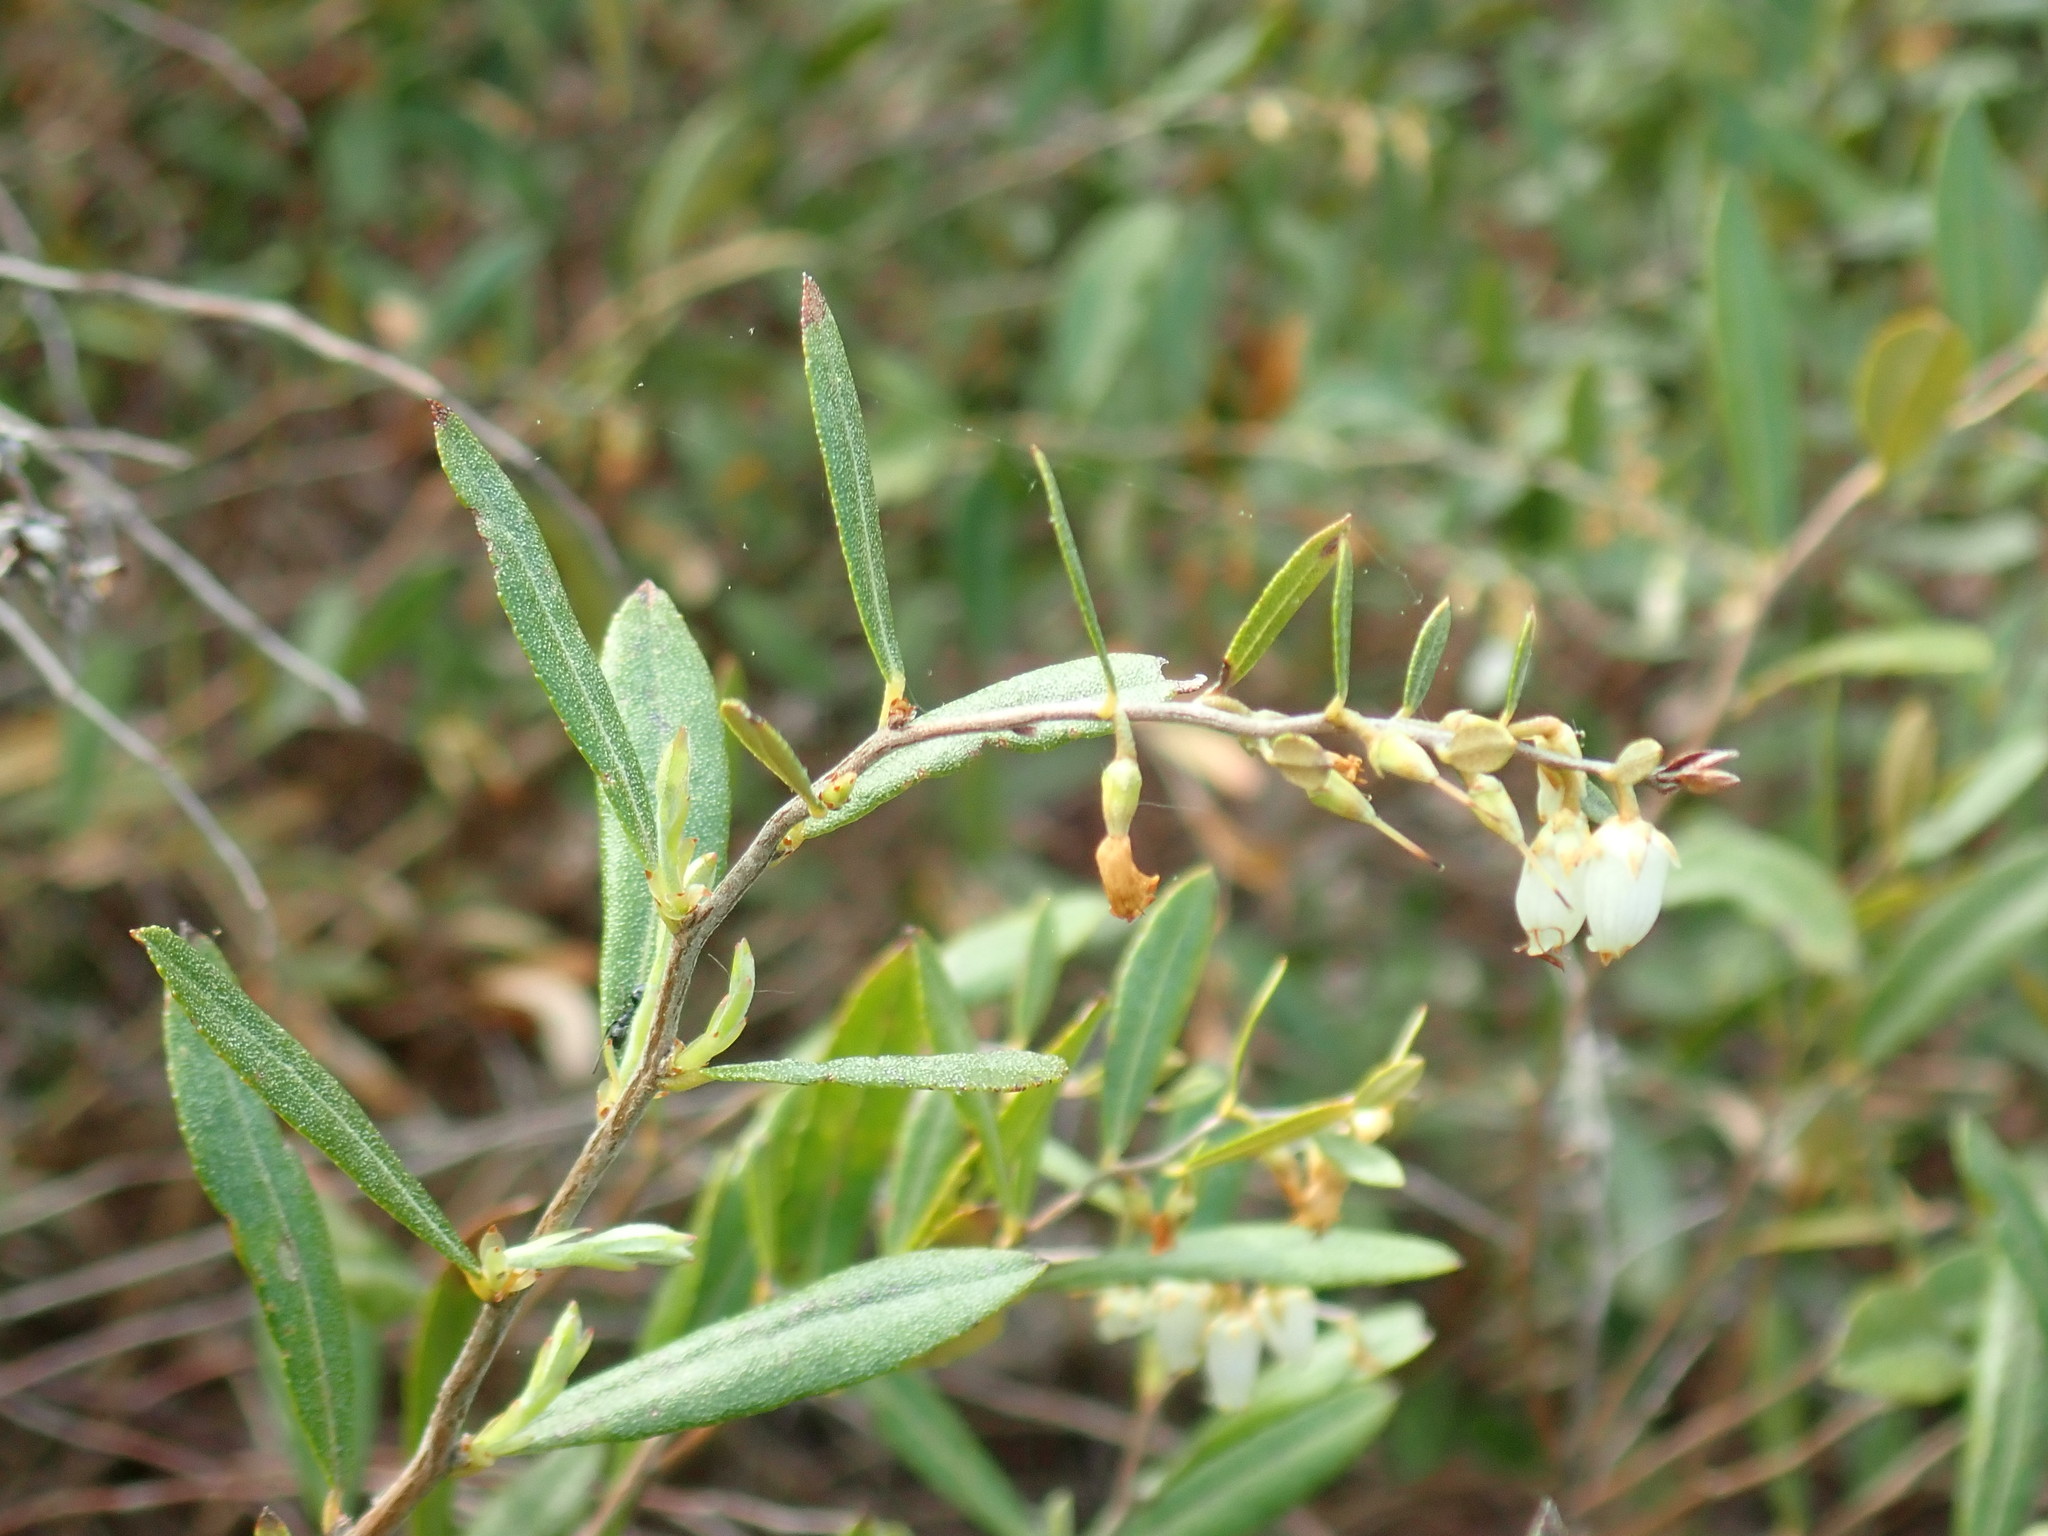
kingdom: Plantae
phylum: Tracheophyta
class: Magnoliopsida
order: Ericales
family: Ericaceae
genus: Chamaedaphne
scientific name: Chamaedaphne calyculata
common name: Leatherleaf
